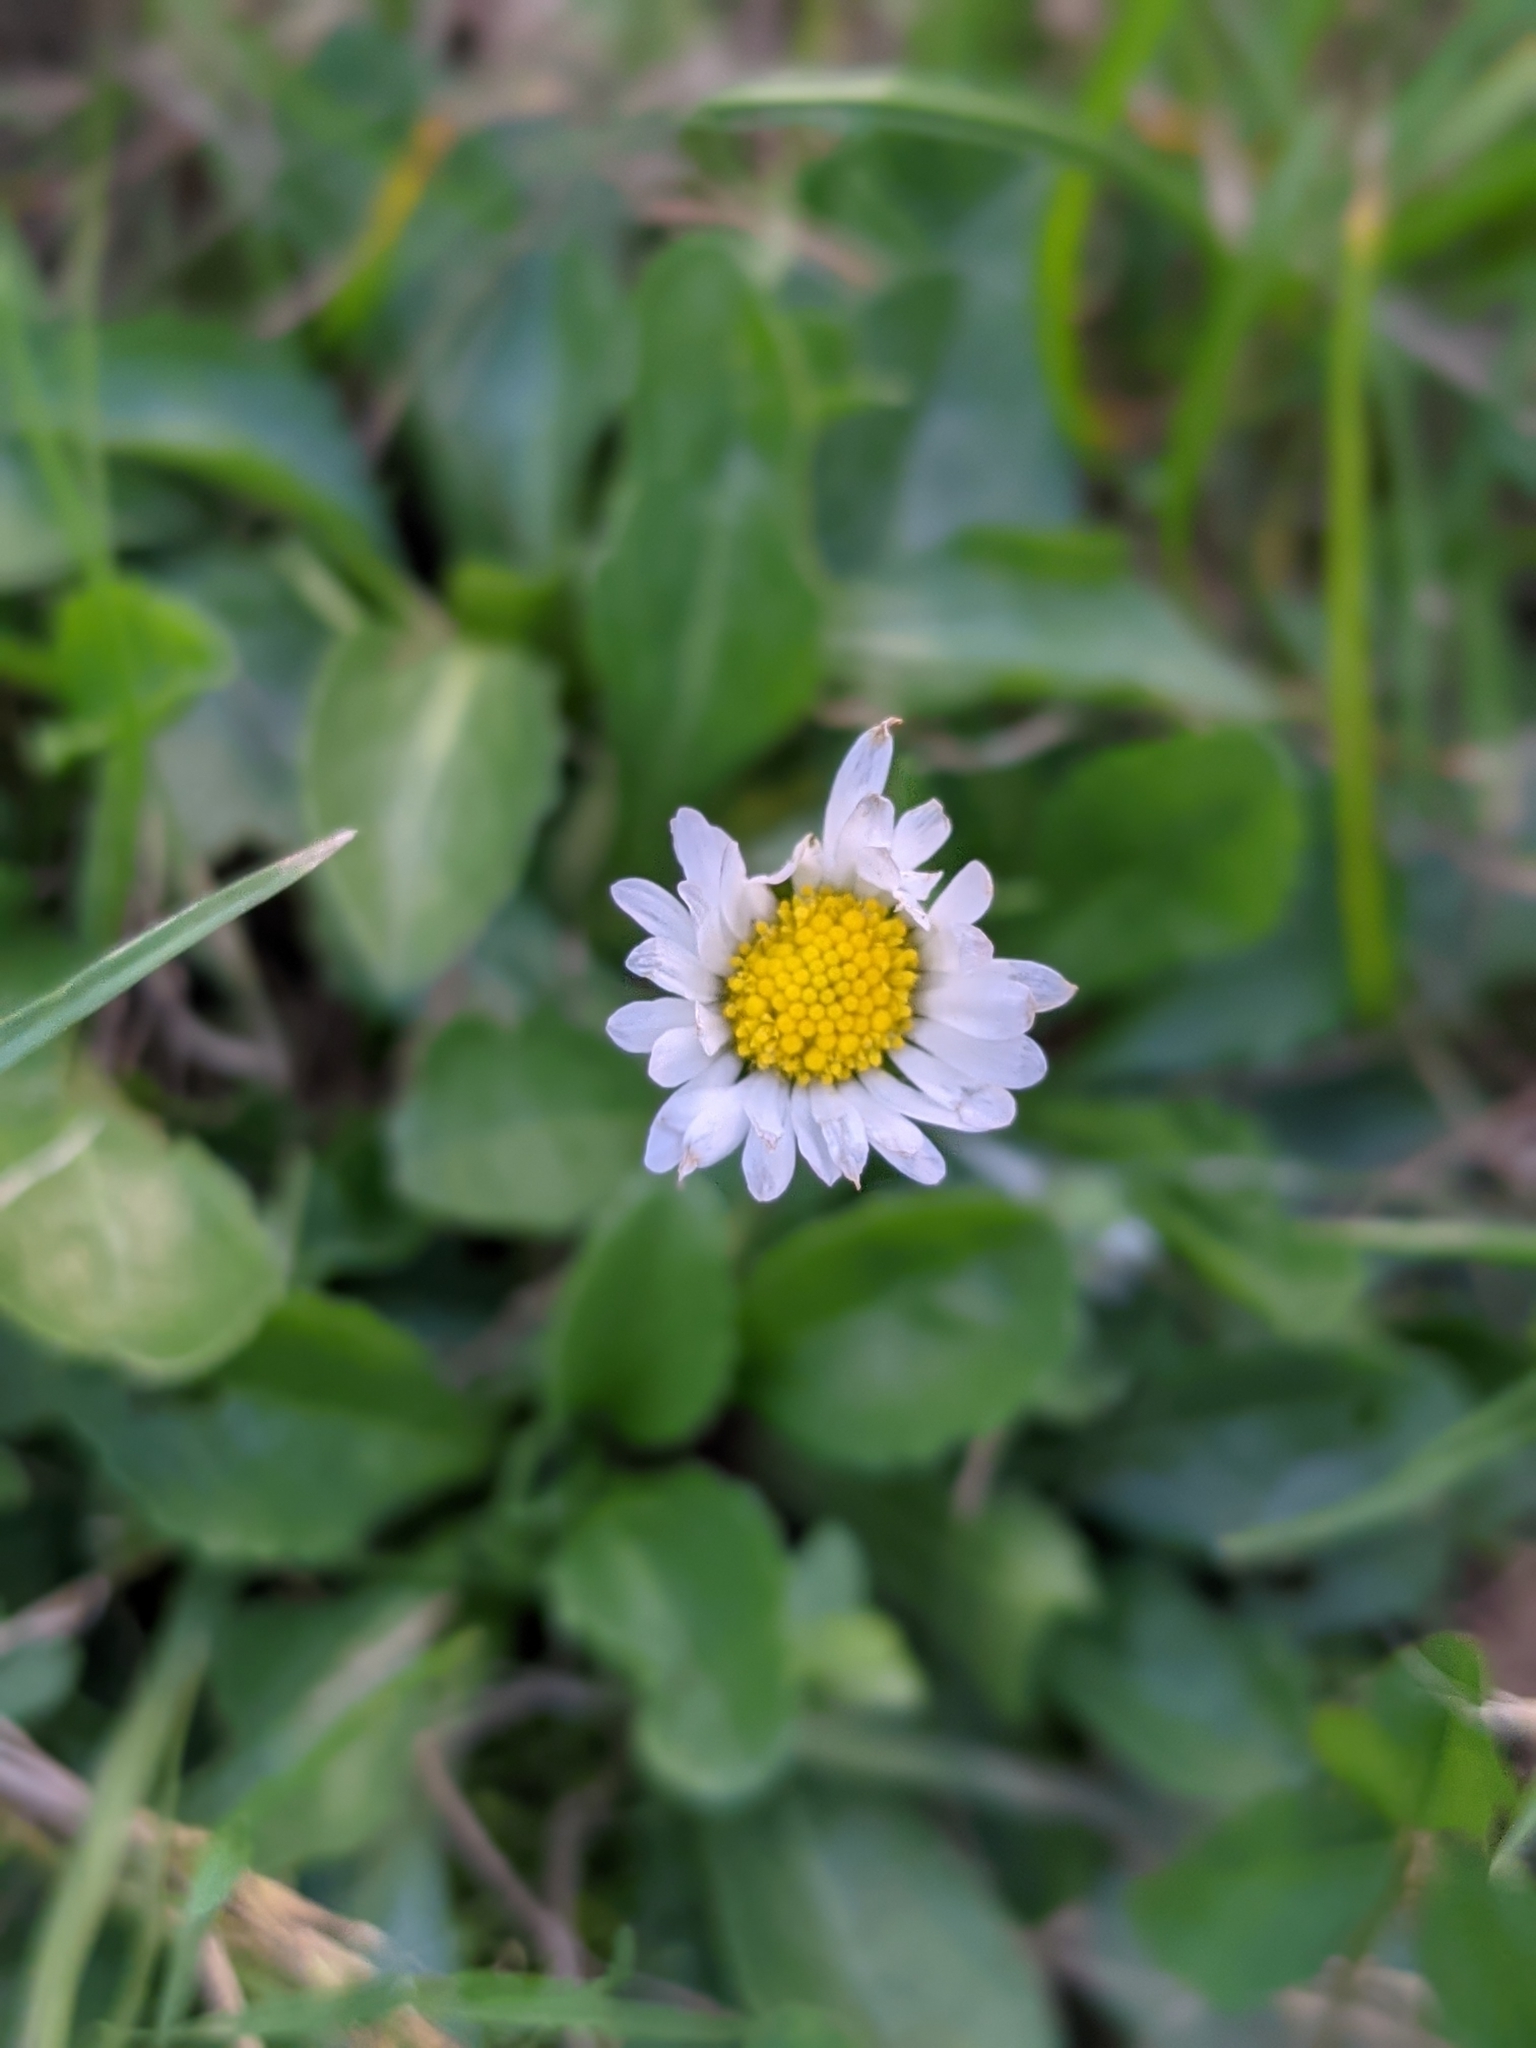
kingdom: Plantae
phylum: Tracheophyta
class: Magnoliopsida
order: Asterales
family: Asteraceae
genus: Bellis
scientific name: Bellis perennis
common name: Lawndaisy
